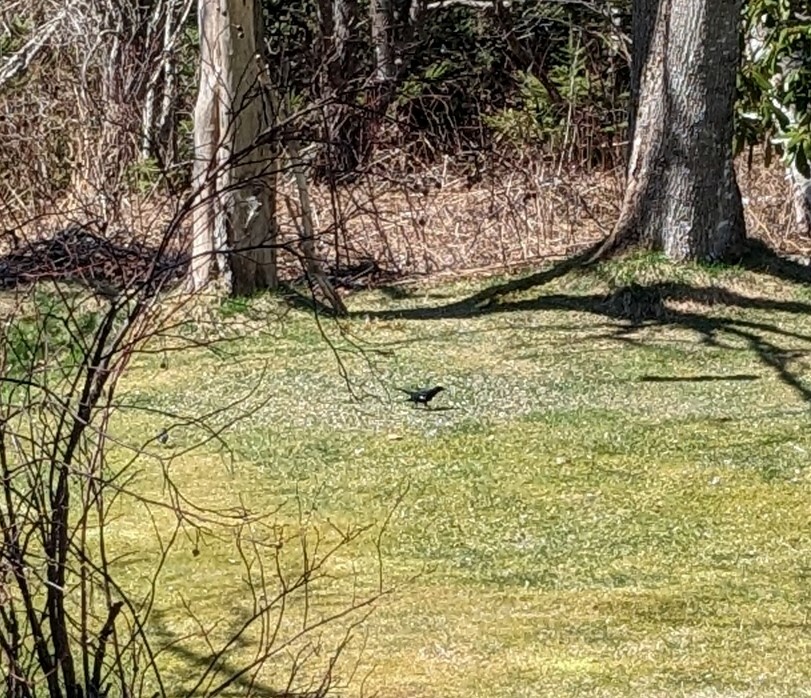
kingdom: Animalia
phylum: Chordata
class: Aves
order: Passeriformes
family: Icteridae
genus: Agelaius
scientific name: Agelaius phoeniceus
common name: Red-winged blackbird
